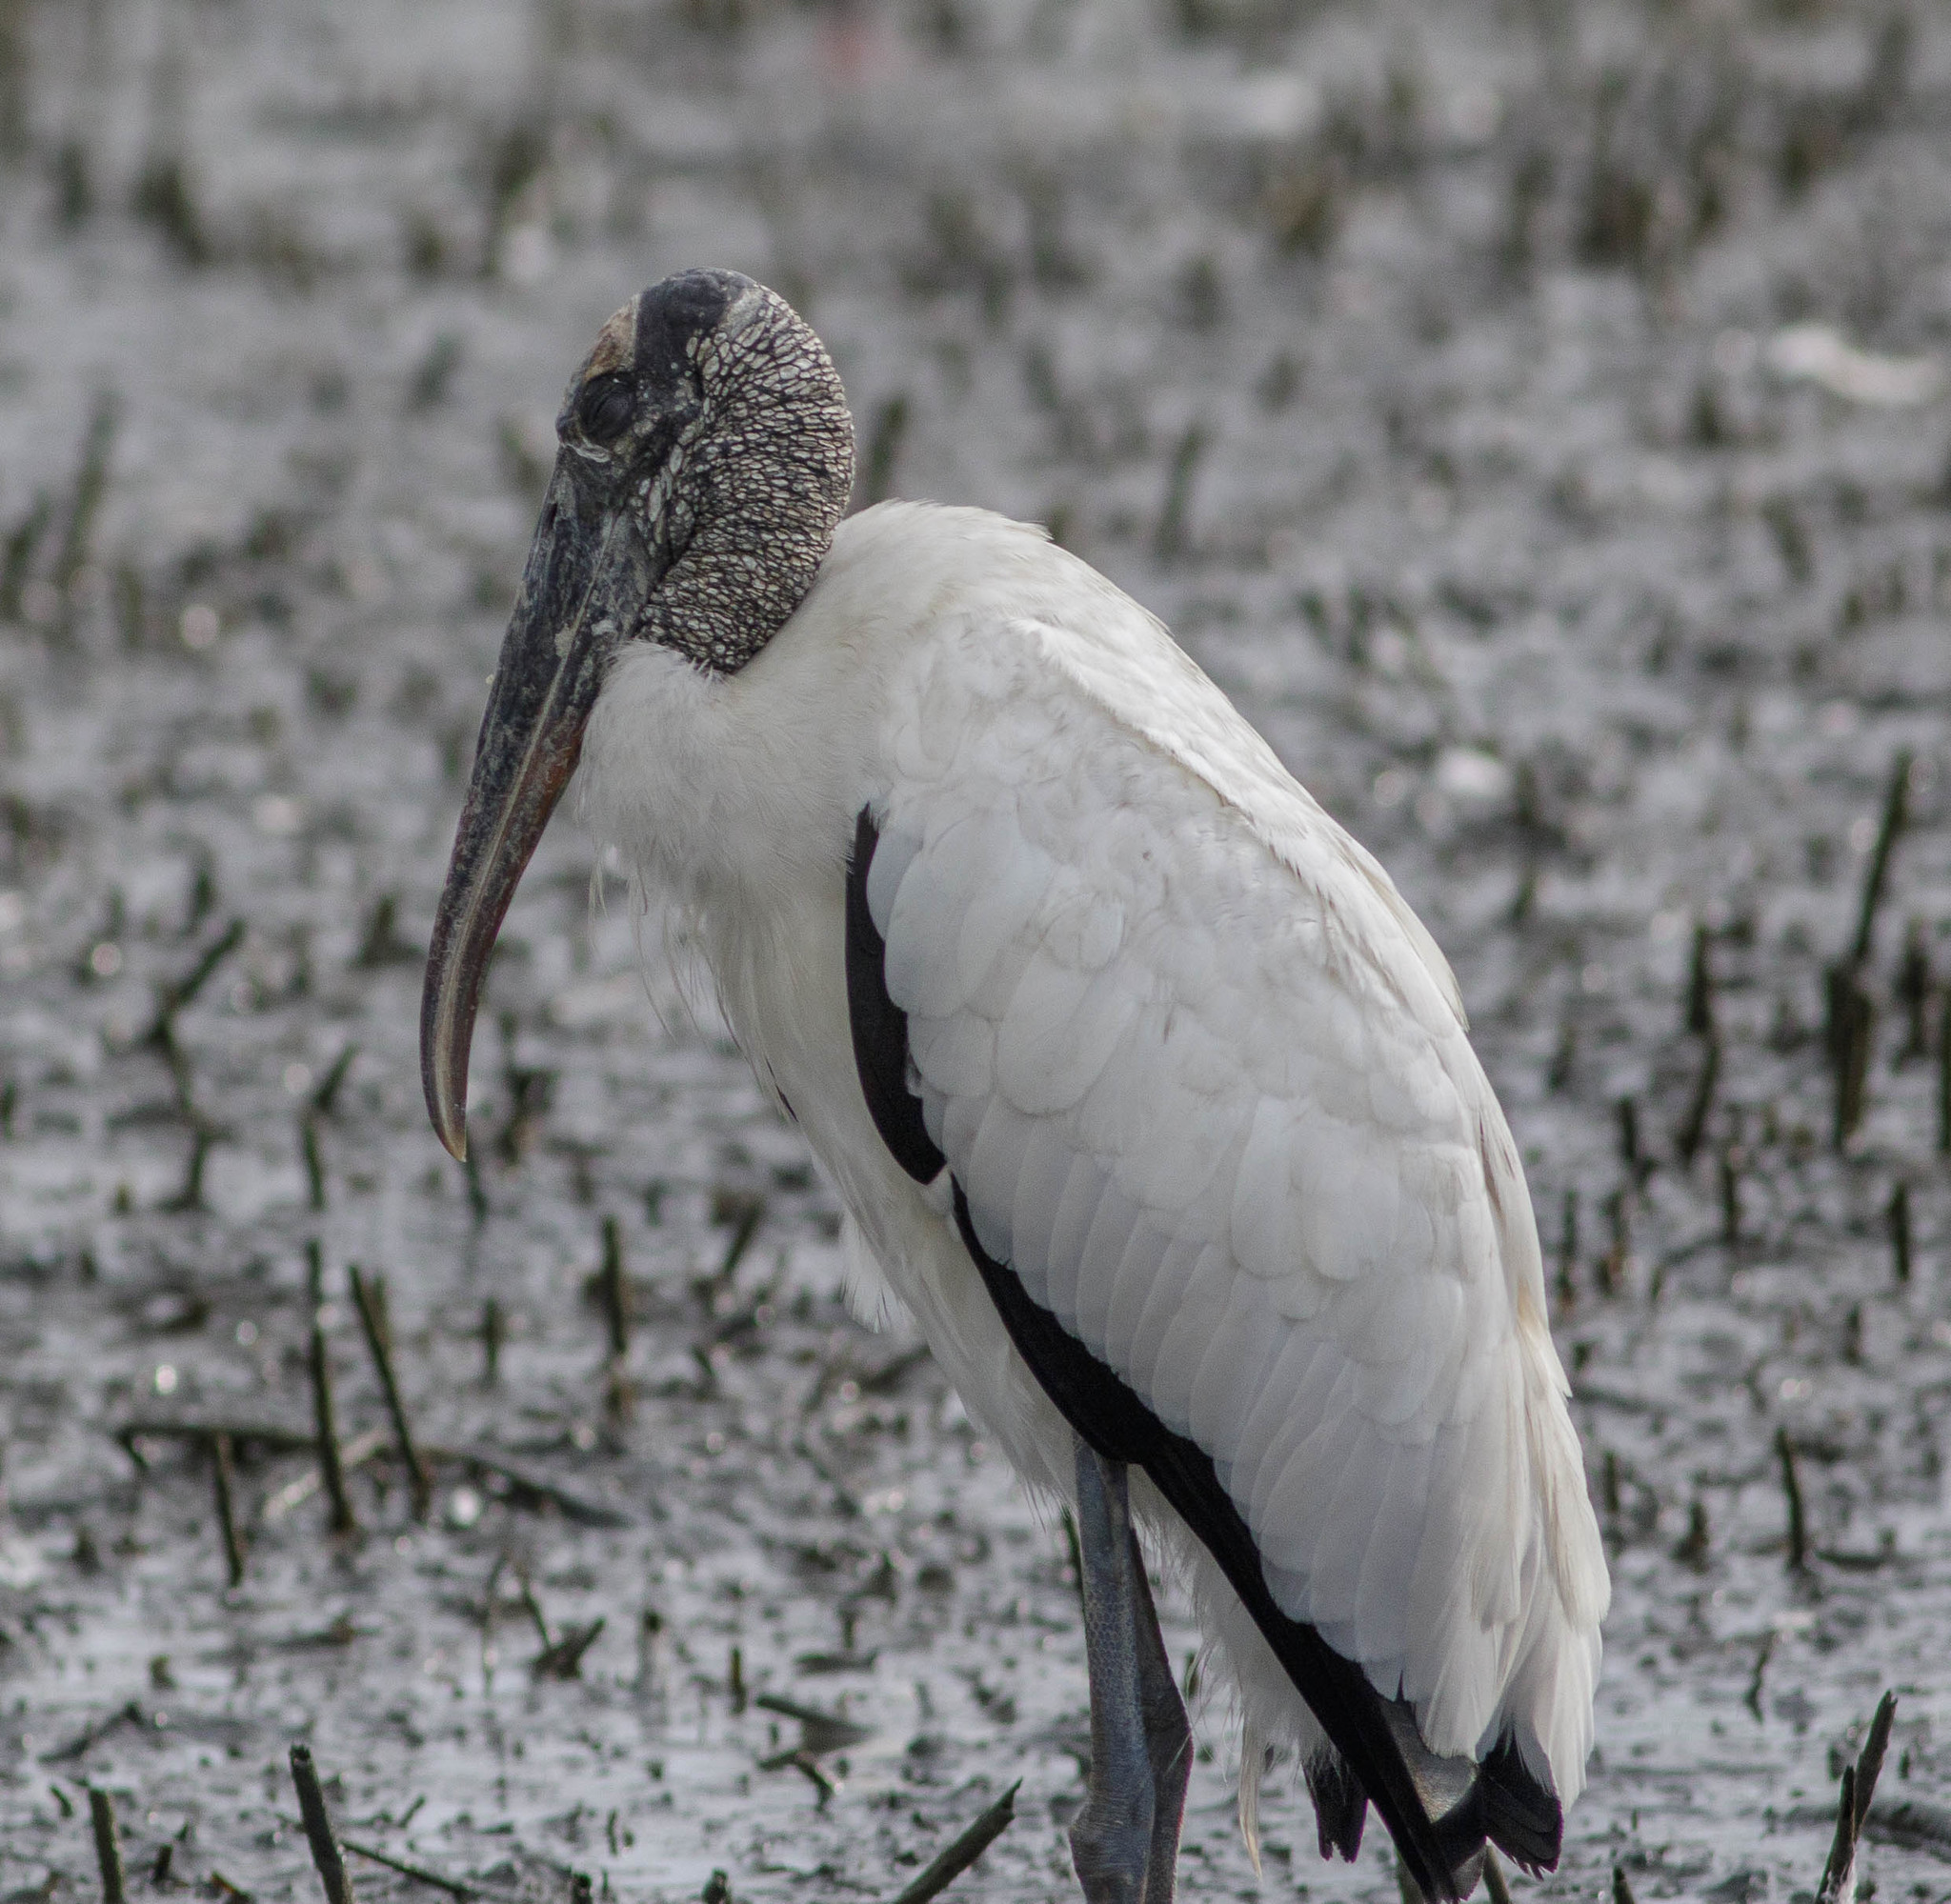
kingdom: Animalia
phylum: Chordata
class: Aves
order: Ciconiiformes
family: Ciconiidae
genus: Mycteria
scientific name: Mycteria americana
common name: Wood stork
